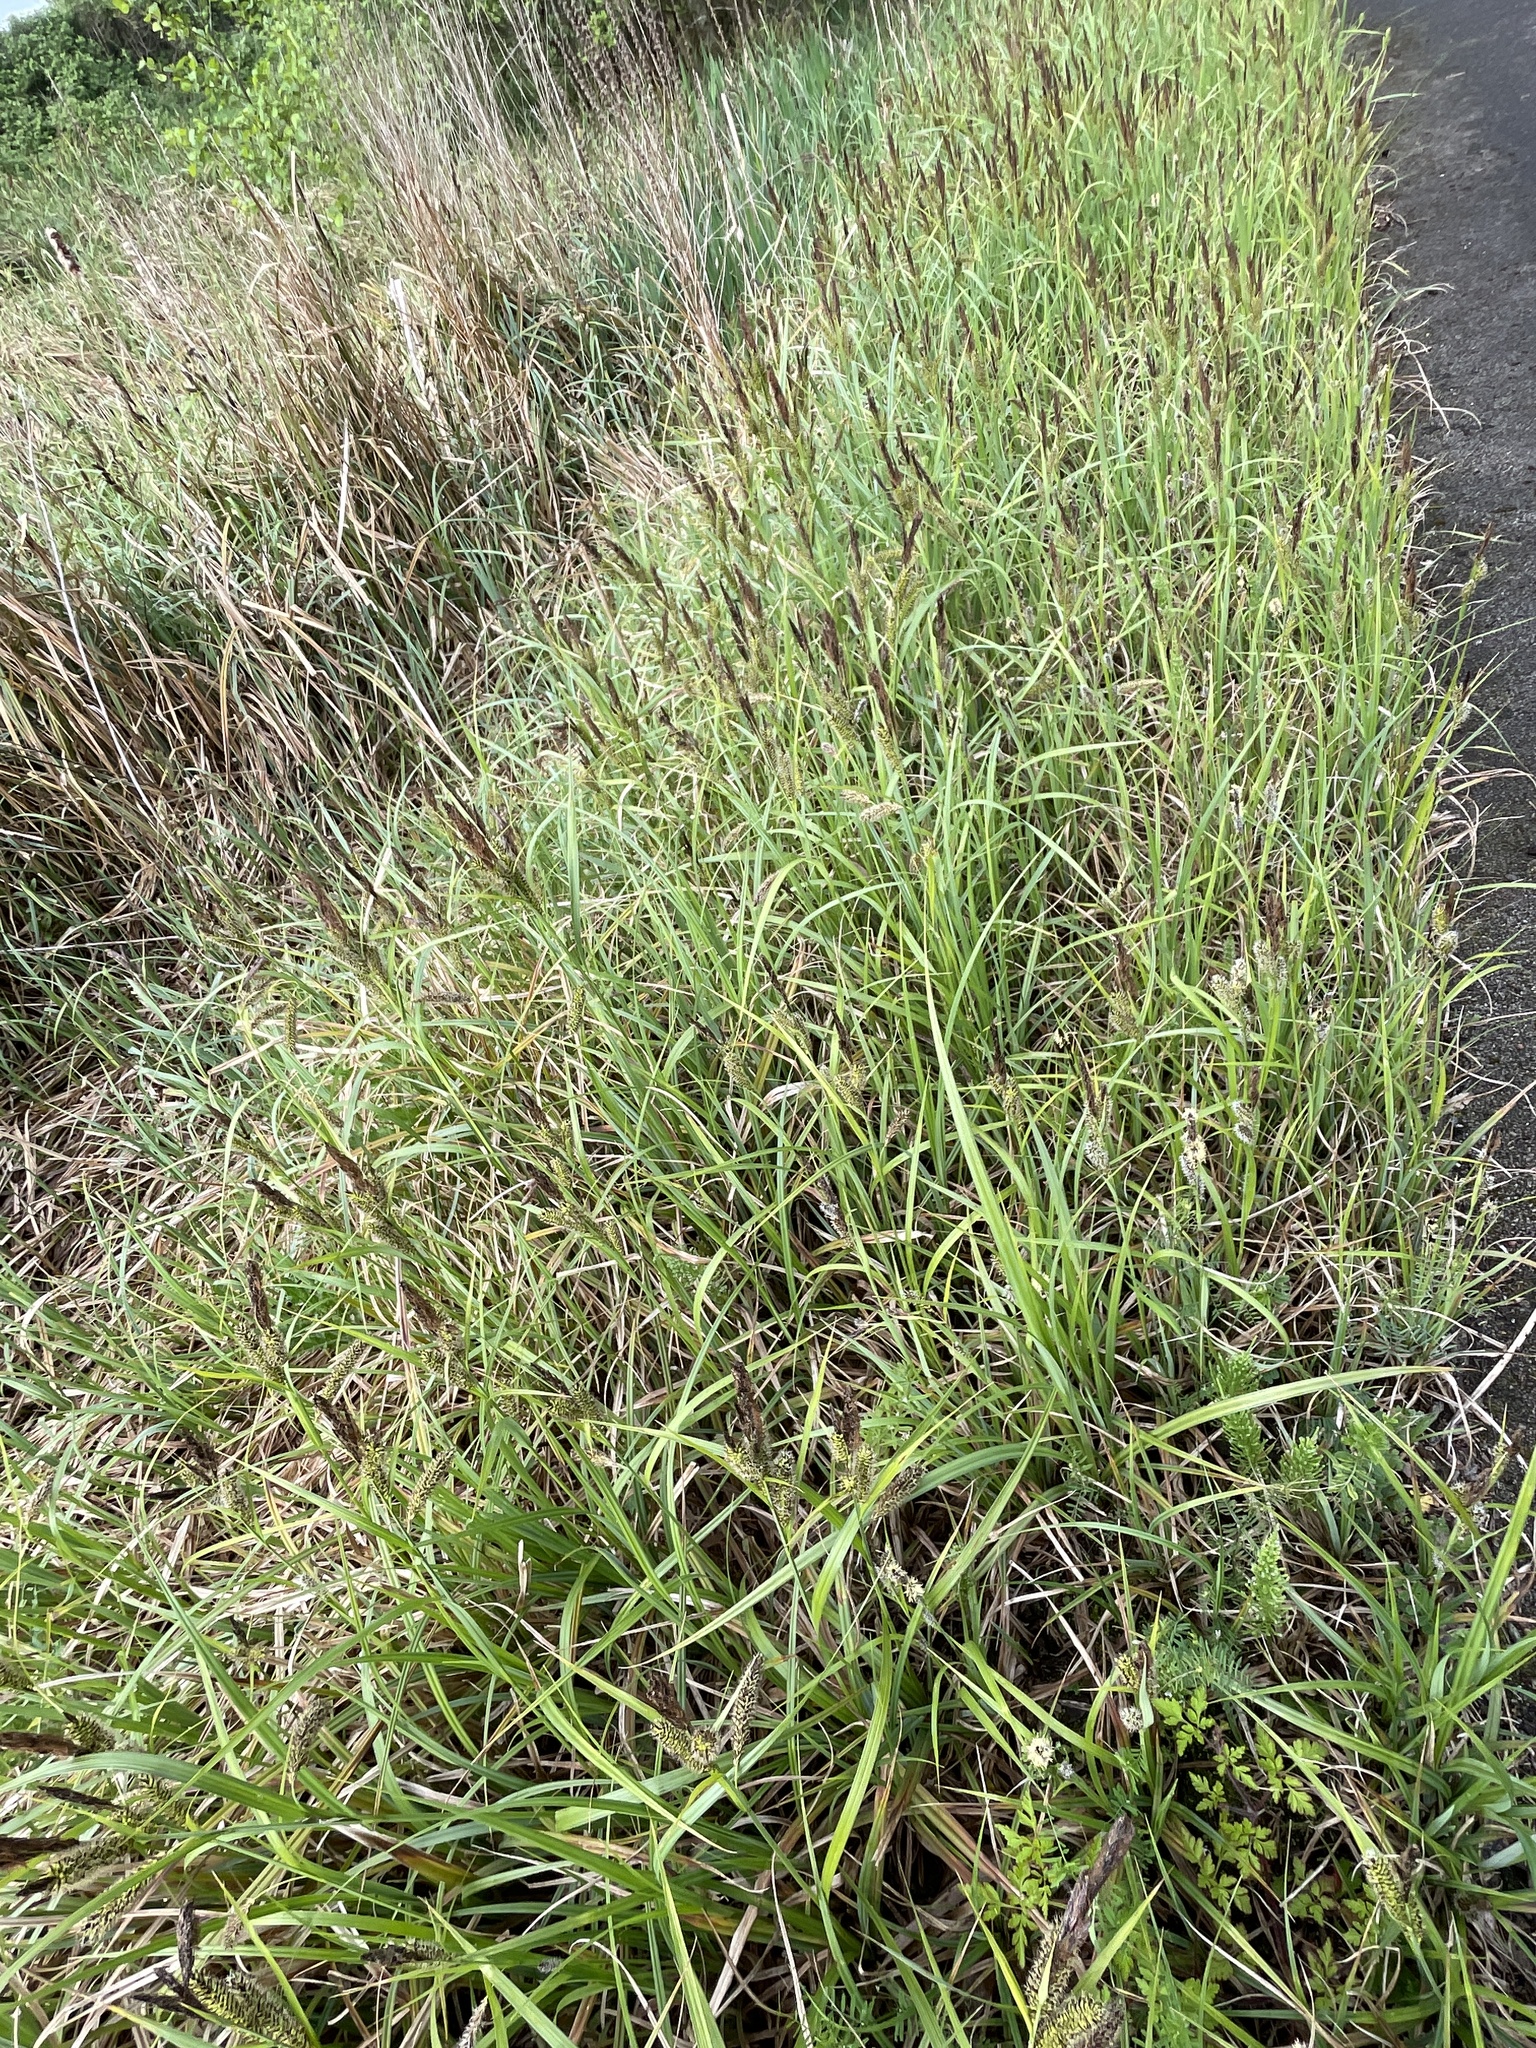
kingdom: Plantae
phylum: Tracheophyta
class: Liliopsida
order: Poales
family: Cyperaceae
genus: Carex
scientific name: Carex riparia
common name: Greater pond-sedge
